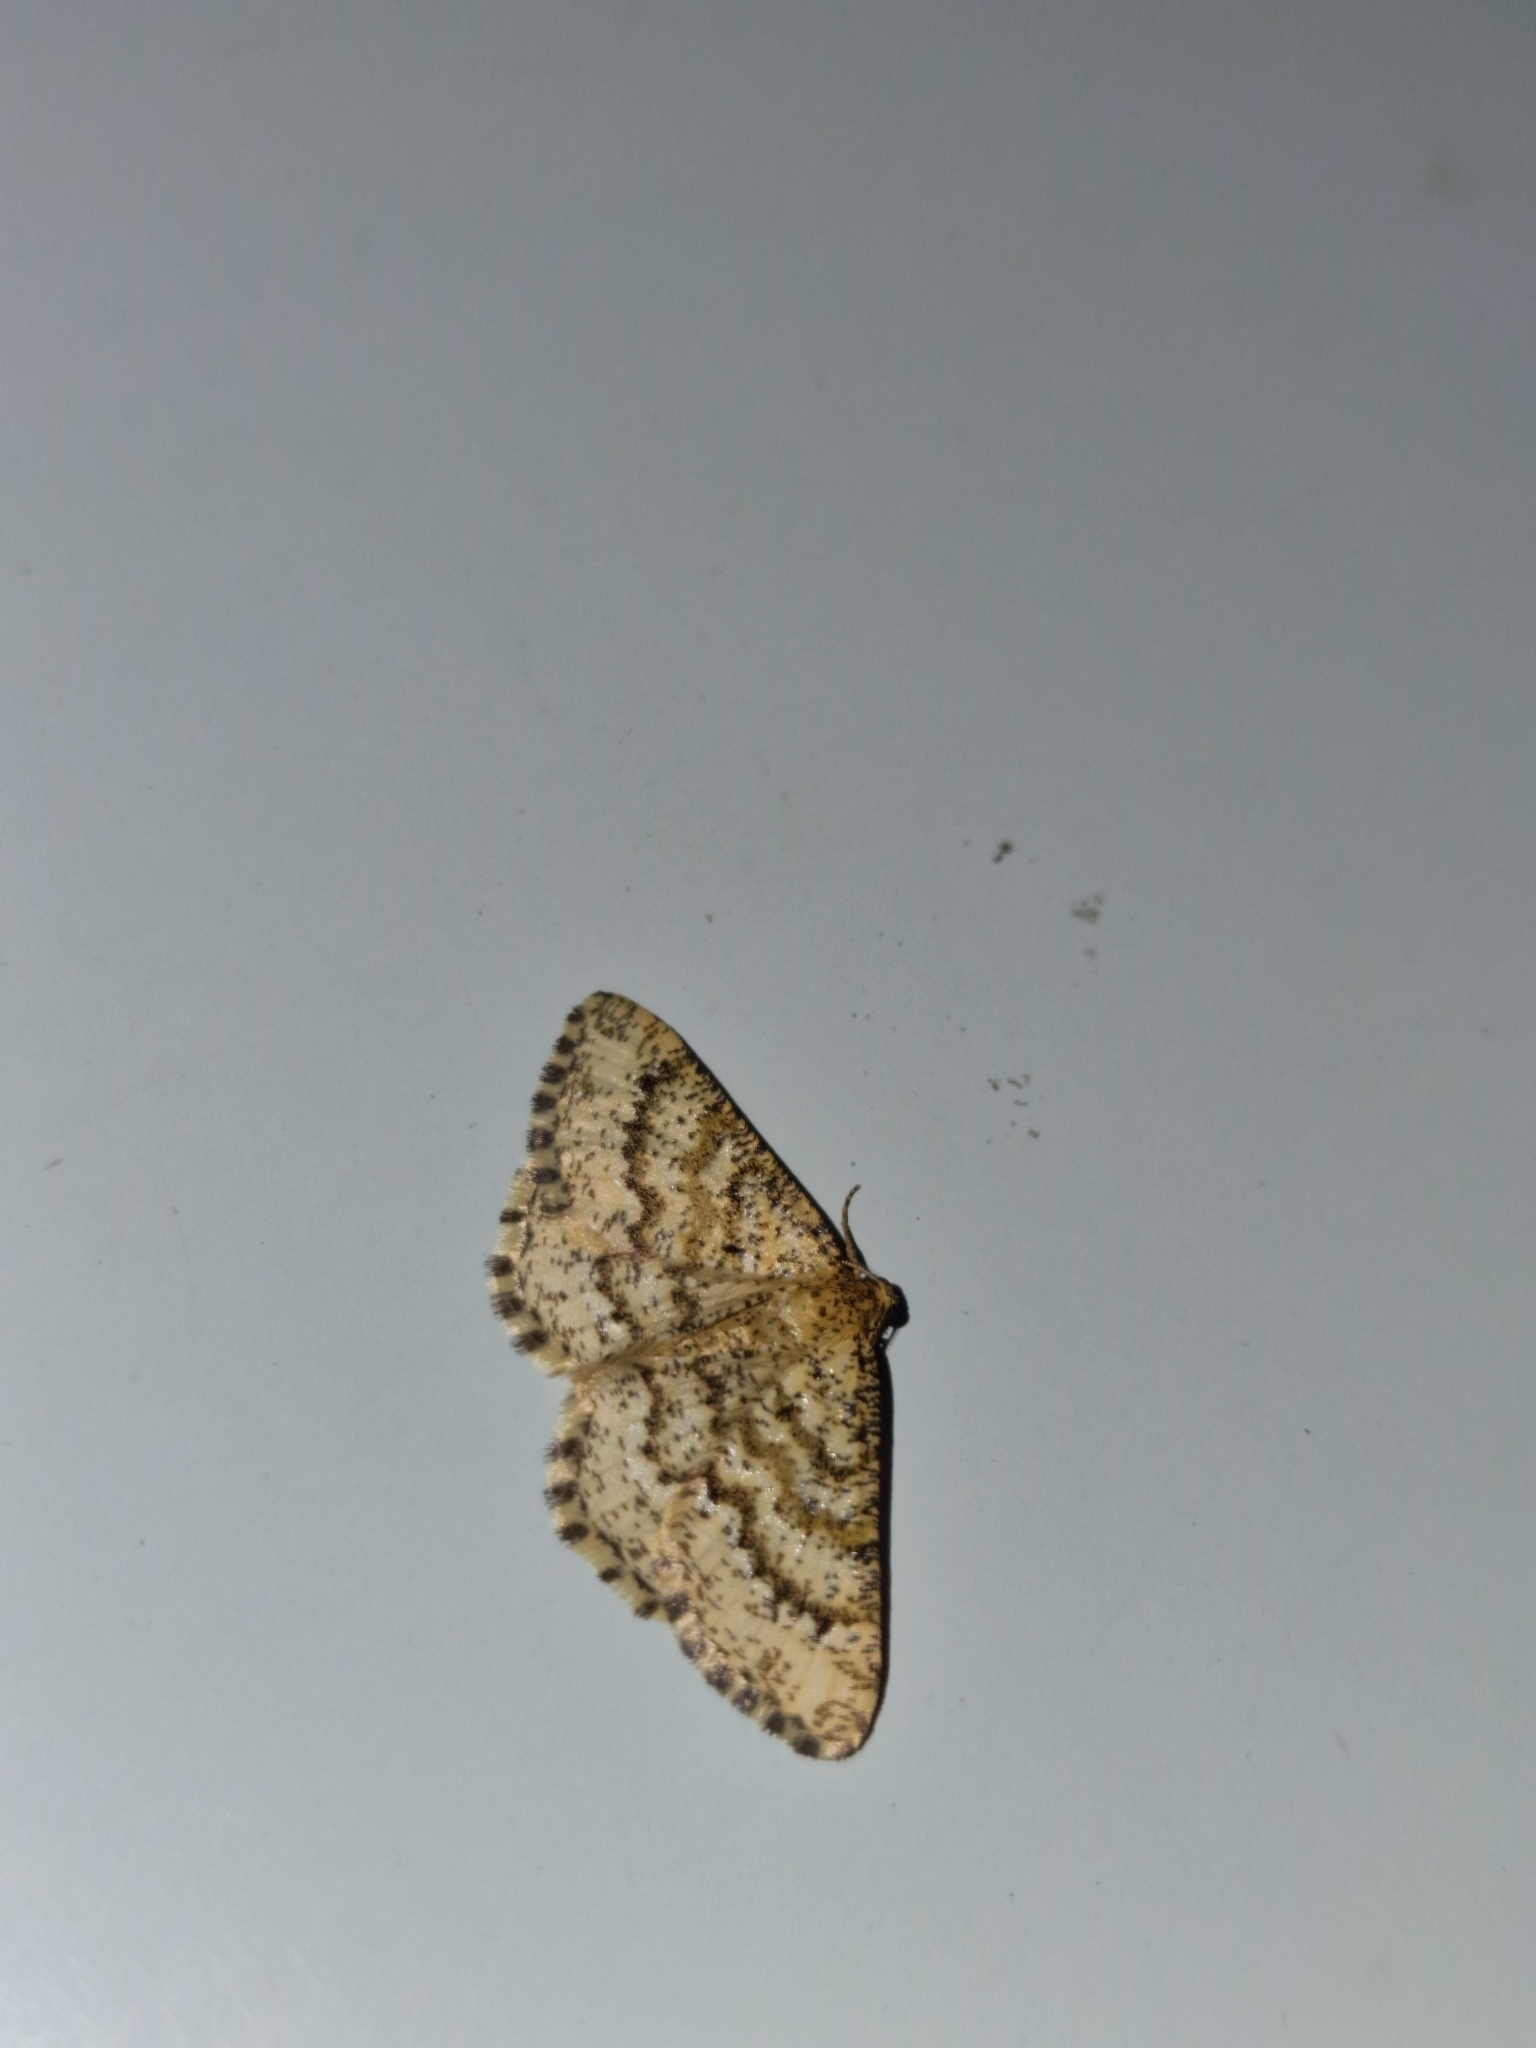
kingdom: Animalia
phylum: Arthropoda
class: Insecta
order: Lepidoptera
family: Geometridae
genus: Heliomata
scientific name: Heliomata glarearia
